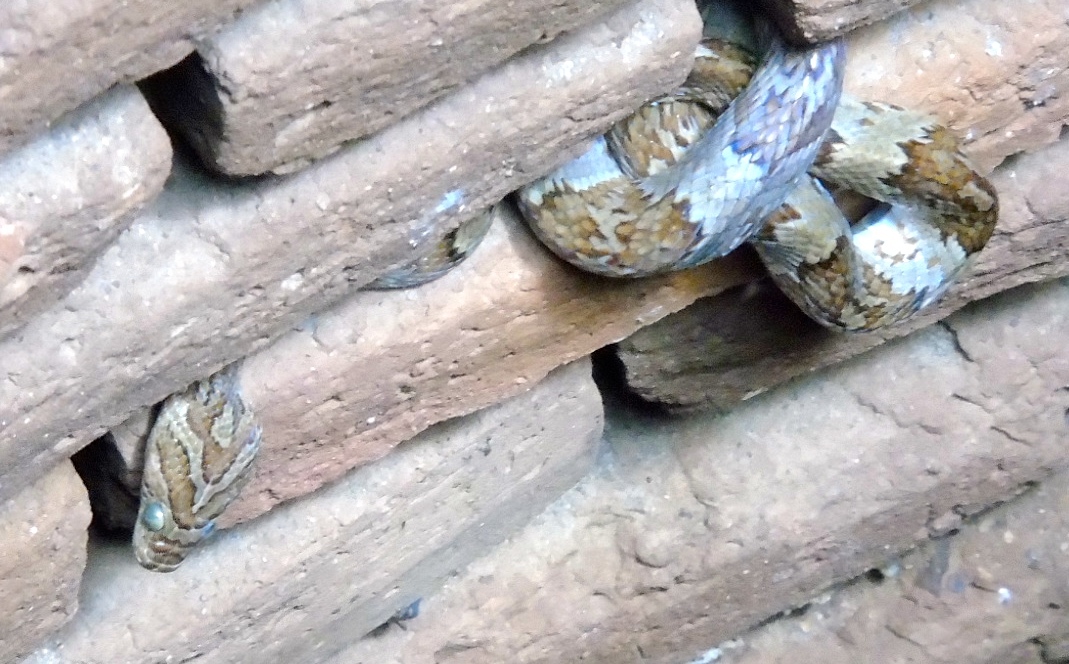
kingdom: Animalia
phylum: Chordata
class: Squamata
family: Colubridae
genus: Trimorphodon
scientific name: Trimorphodon paucimaculatus
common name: Sinaloan lyresnake
